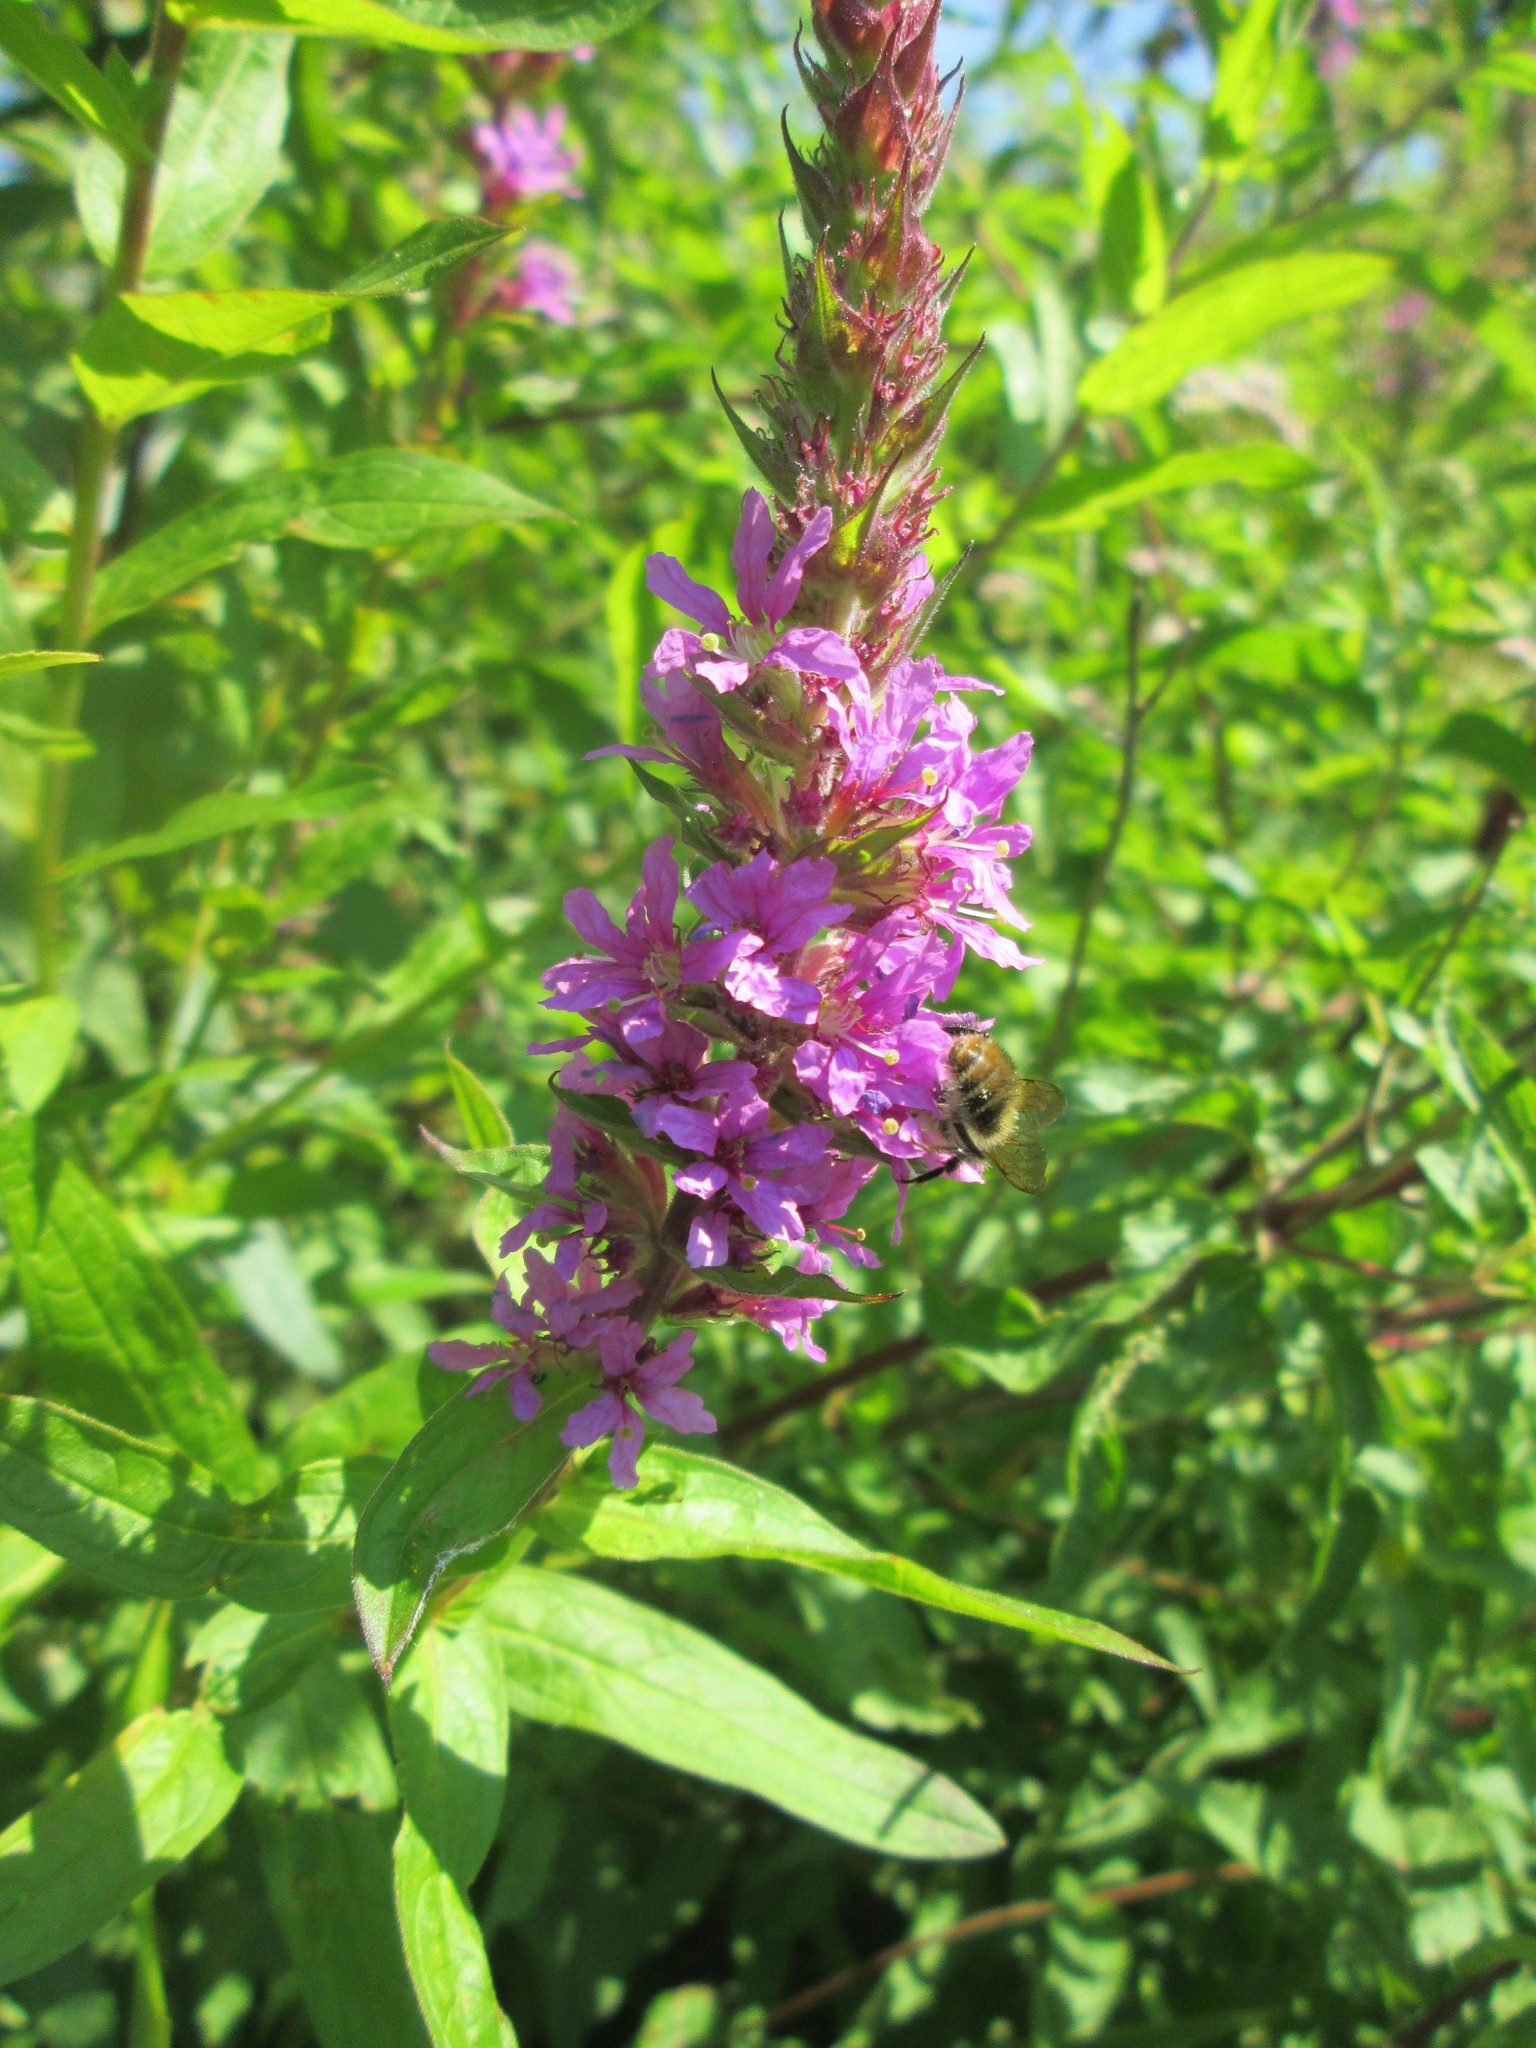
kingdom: Plantae
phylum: Tracheophyta
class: Magnoliopsida
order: Myrtales
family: Lythraceae
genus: Lythrum
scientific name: Lythrum salicaria
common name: Purple loosestrife
